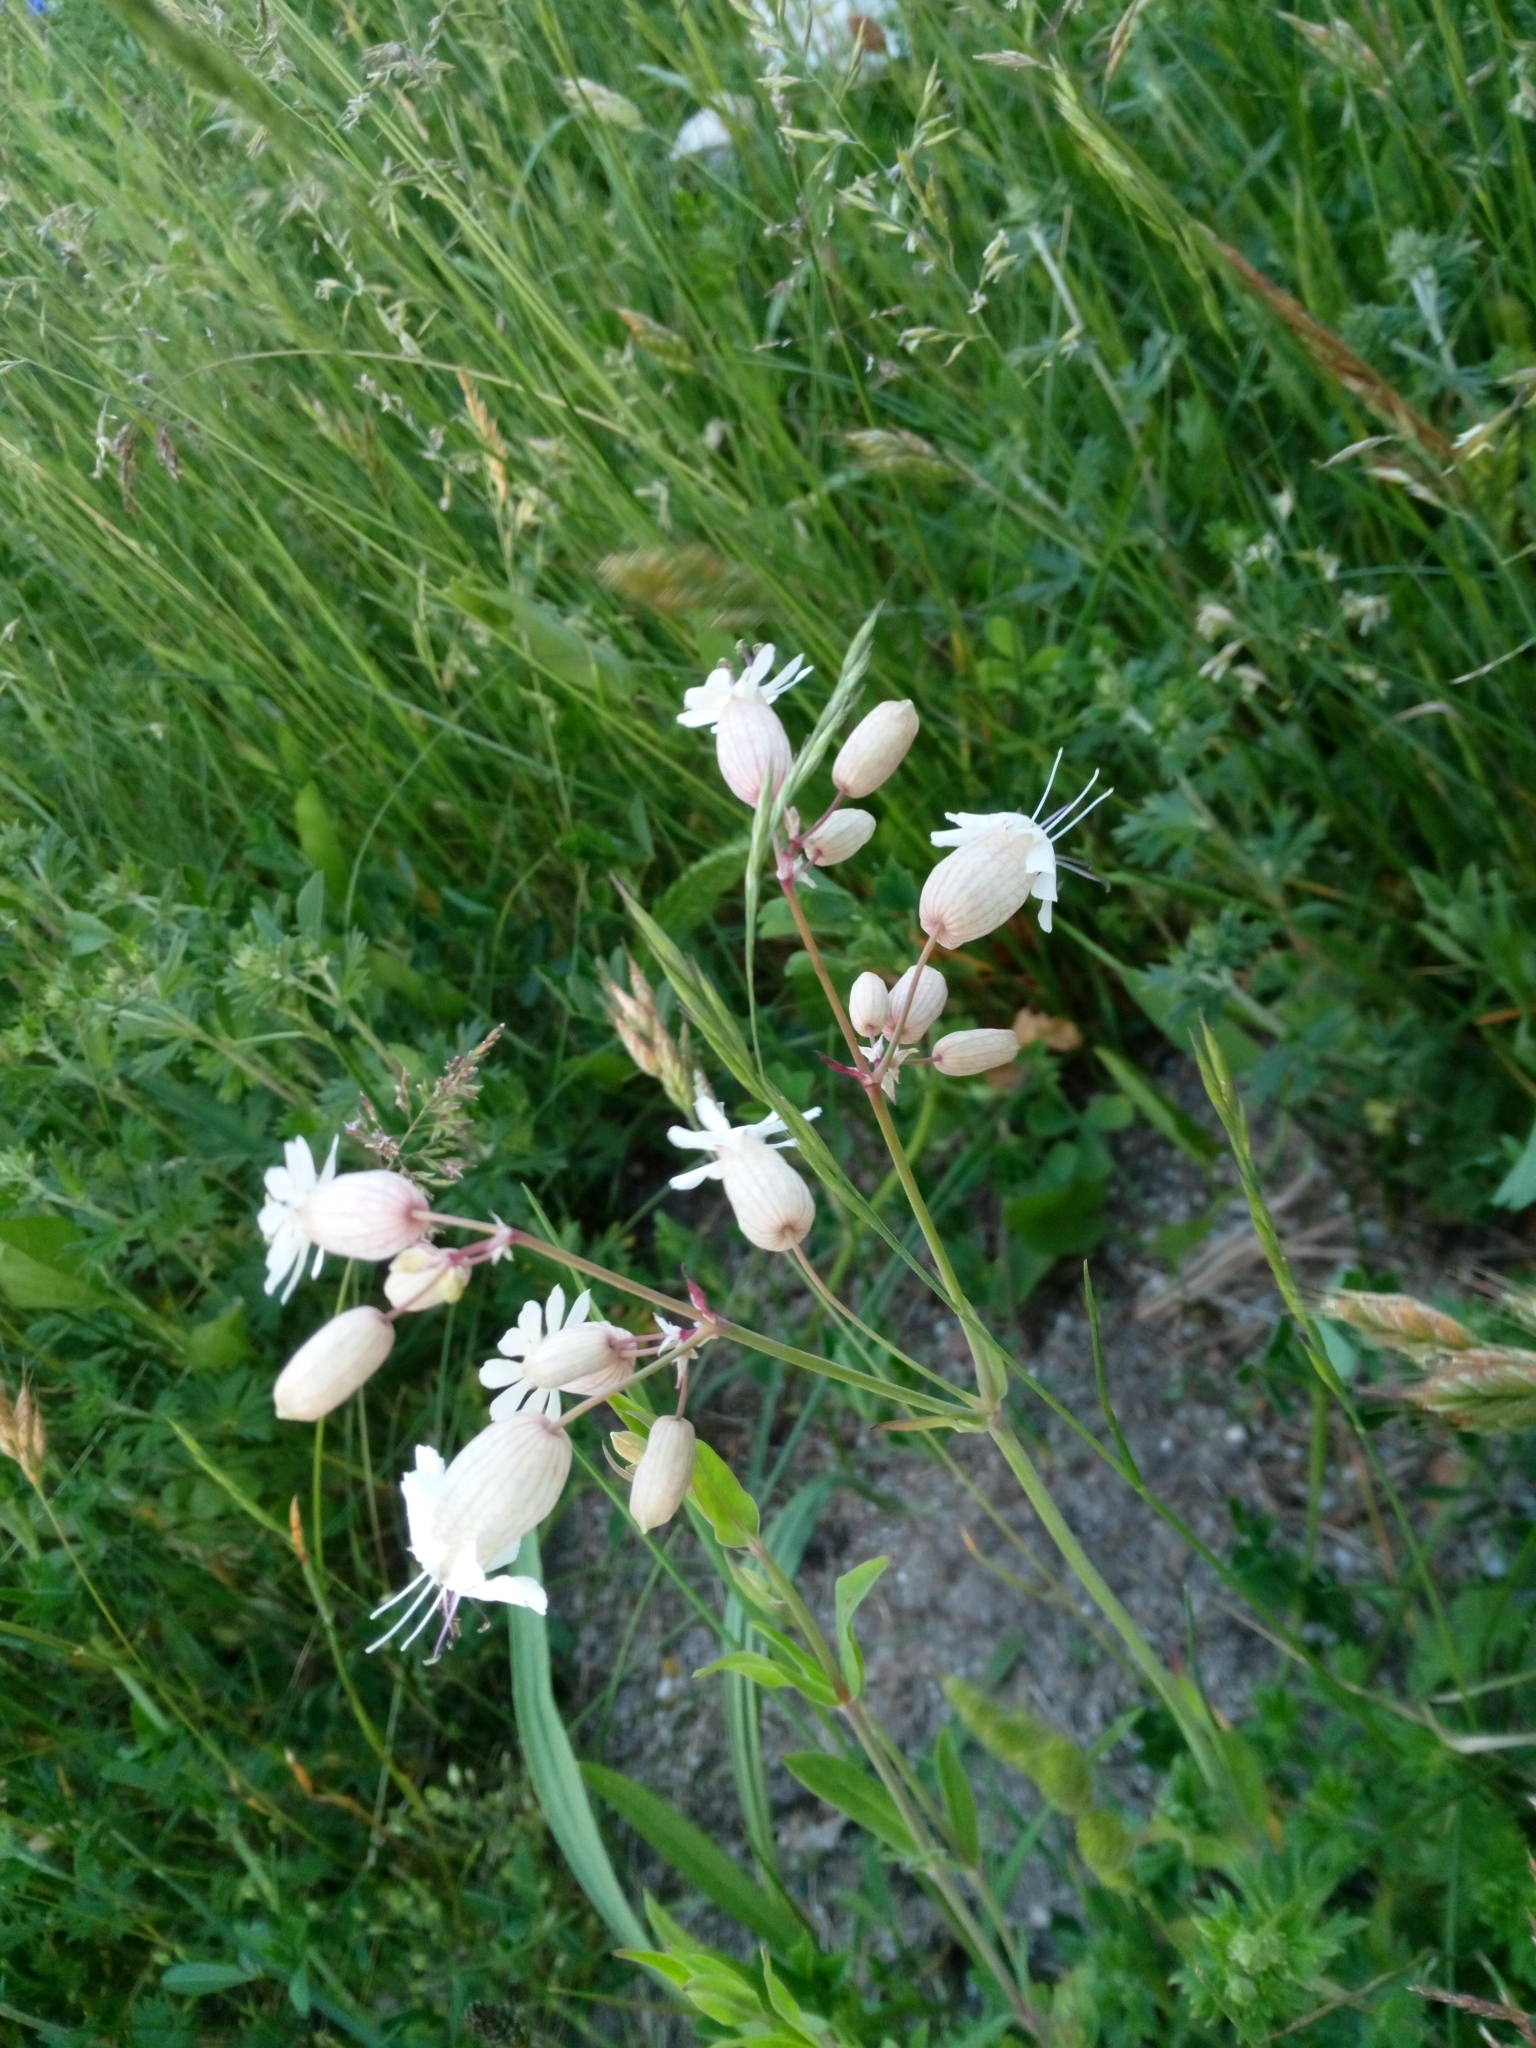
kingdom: Plantae
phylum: Tracheophyta
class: Magnoliopsida
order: Caryophyllales
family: Caryophyllaceae
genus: Silene
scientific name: Silene vulgaris
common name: Bladder campion
